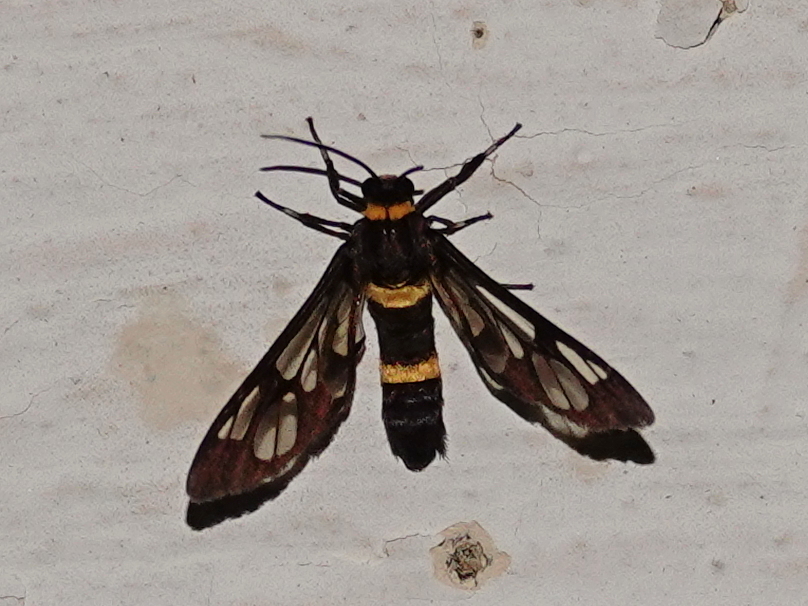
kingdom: Animalia
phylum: Arthropoda
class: Insecta
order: Lepidoptera
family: Erebidae
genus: Syntomoides
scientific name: Syntomoides imaon
